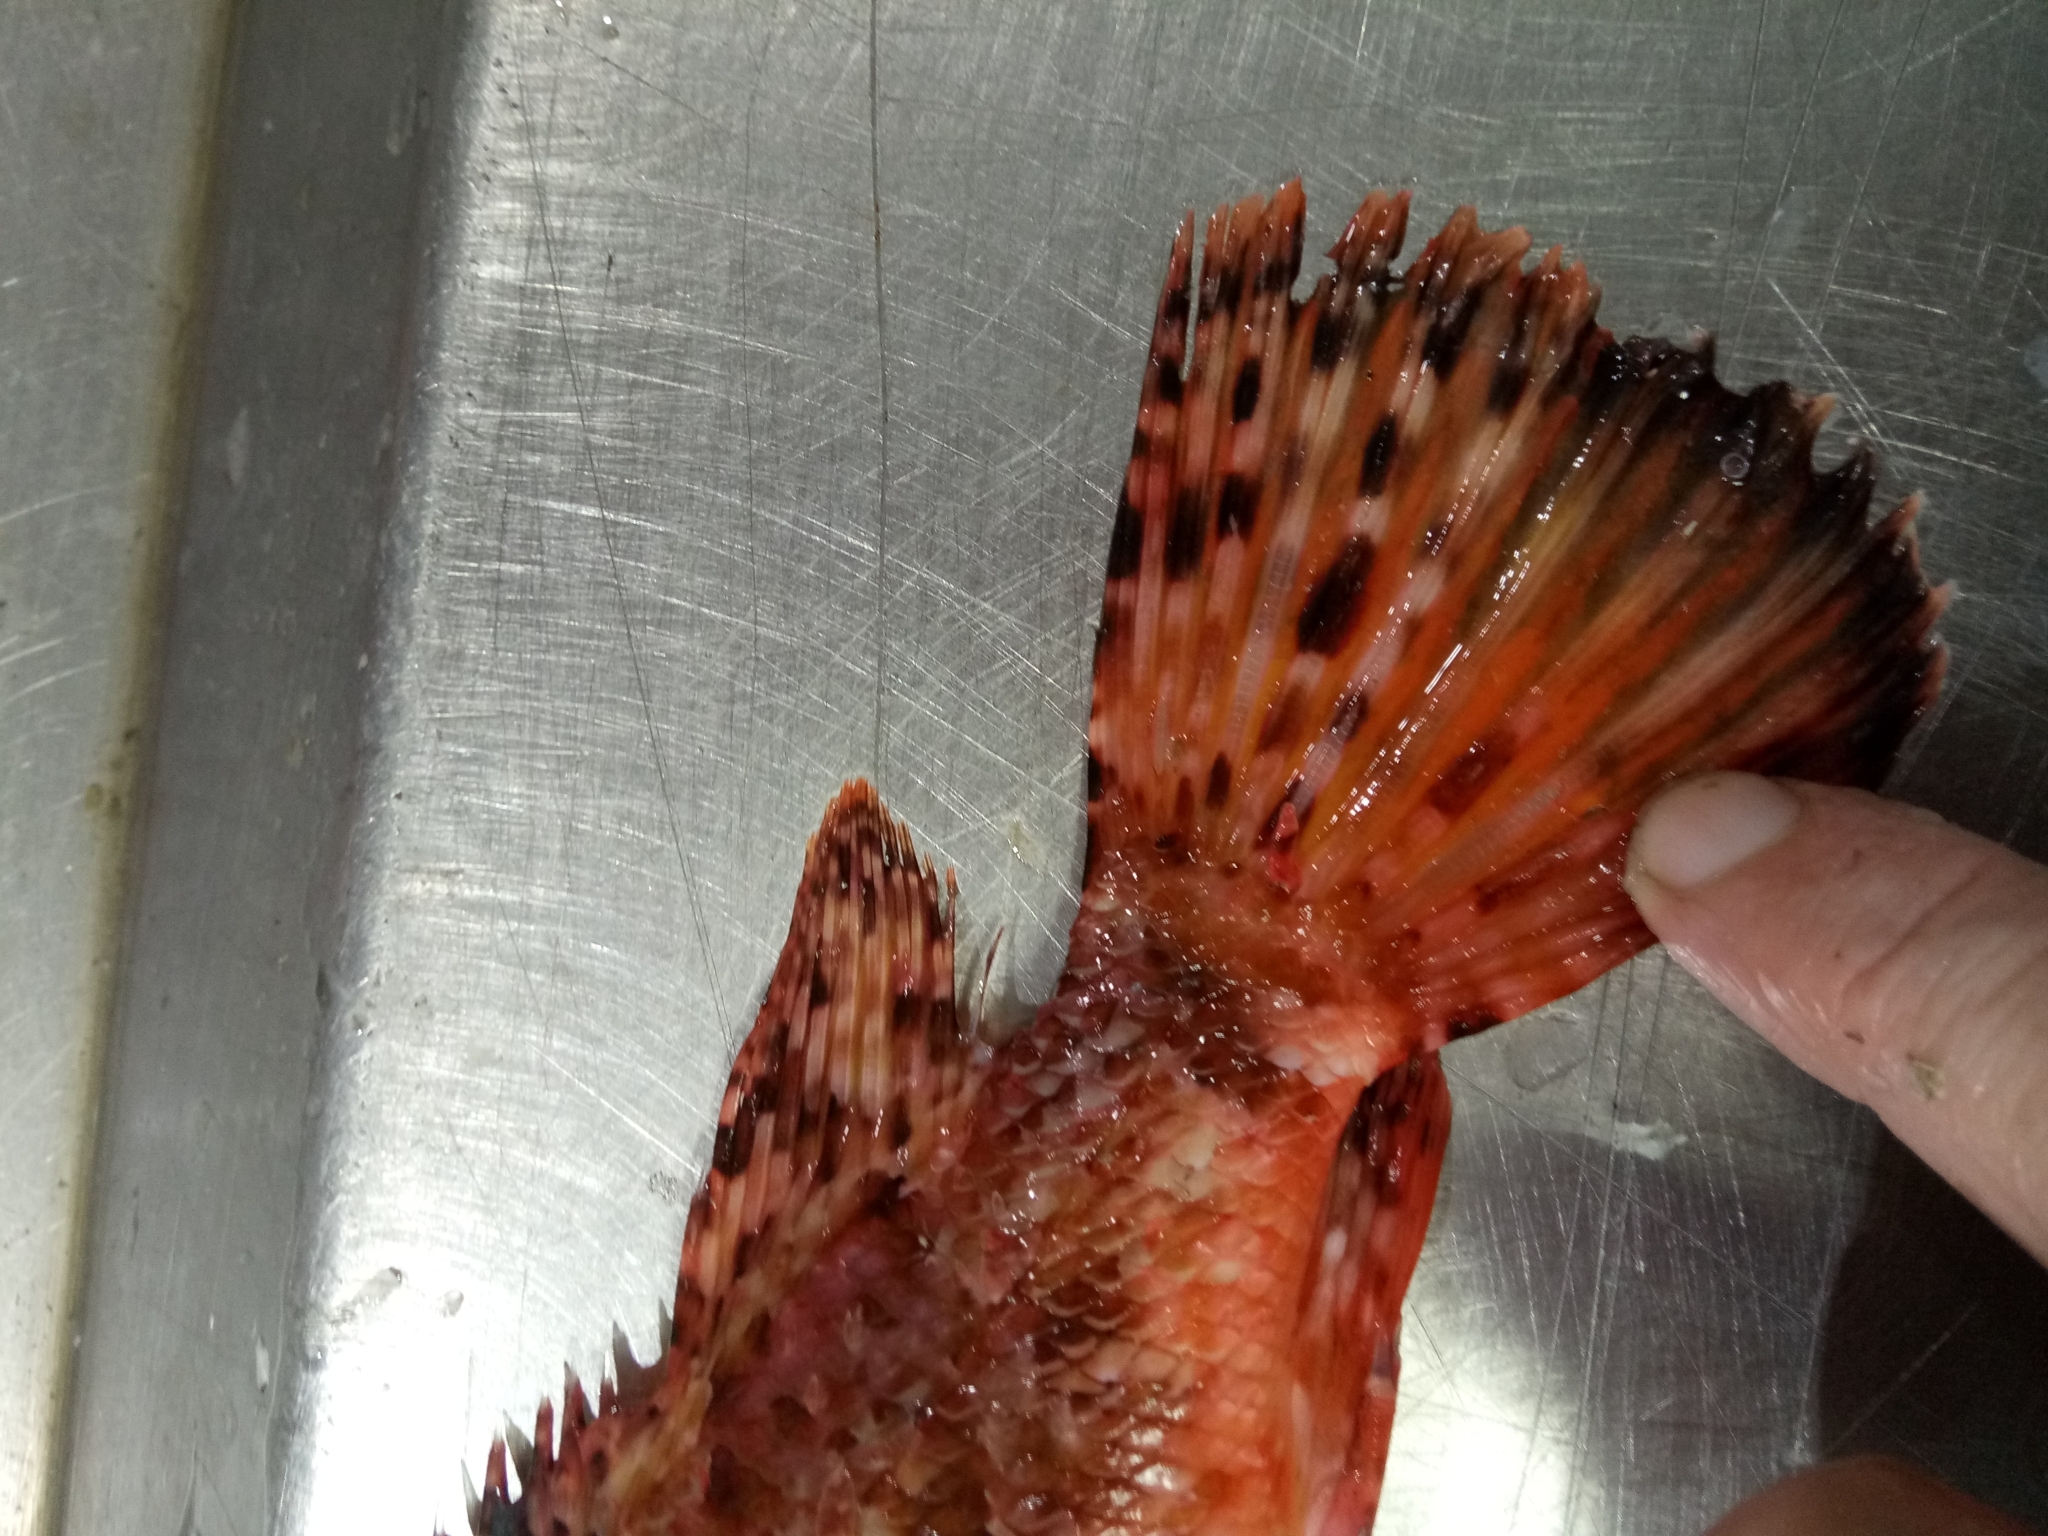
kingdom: Animalia
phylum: Chordata
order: Scorpaeniformes
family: Scorpaenidae
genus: Scorpaena
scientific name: Scorpaena scrofa
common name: Red scorpionfish
